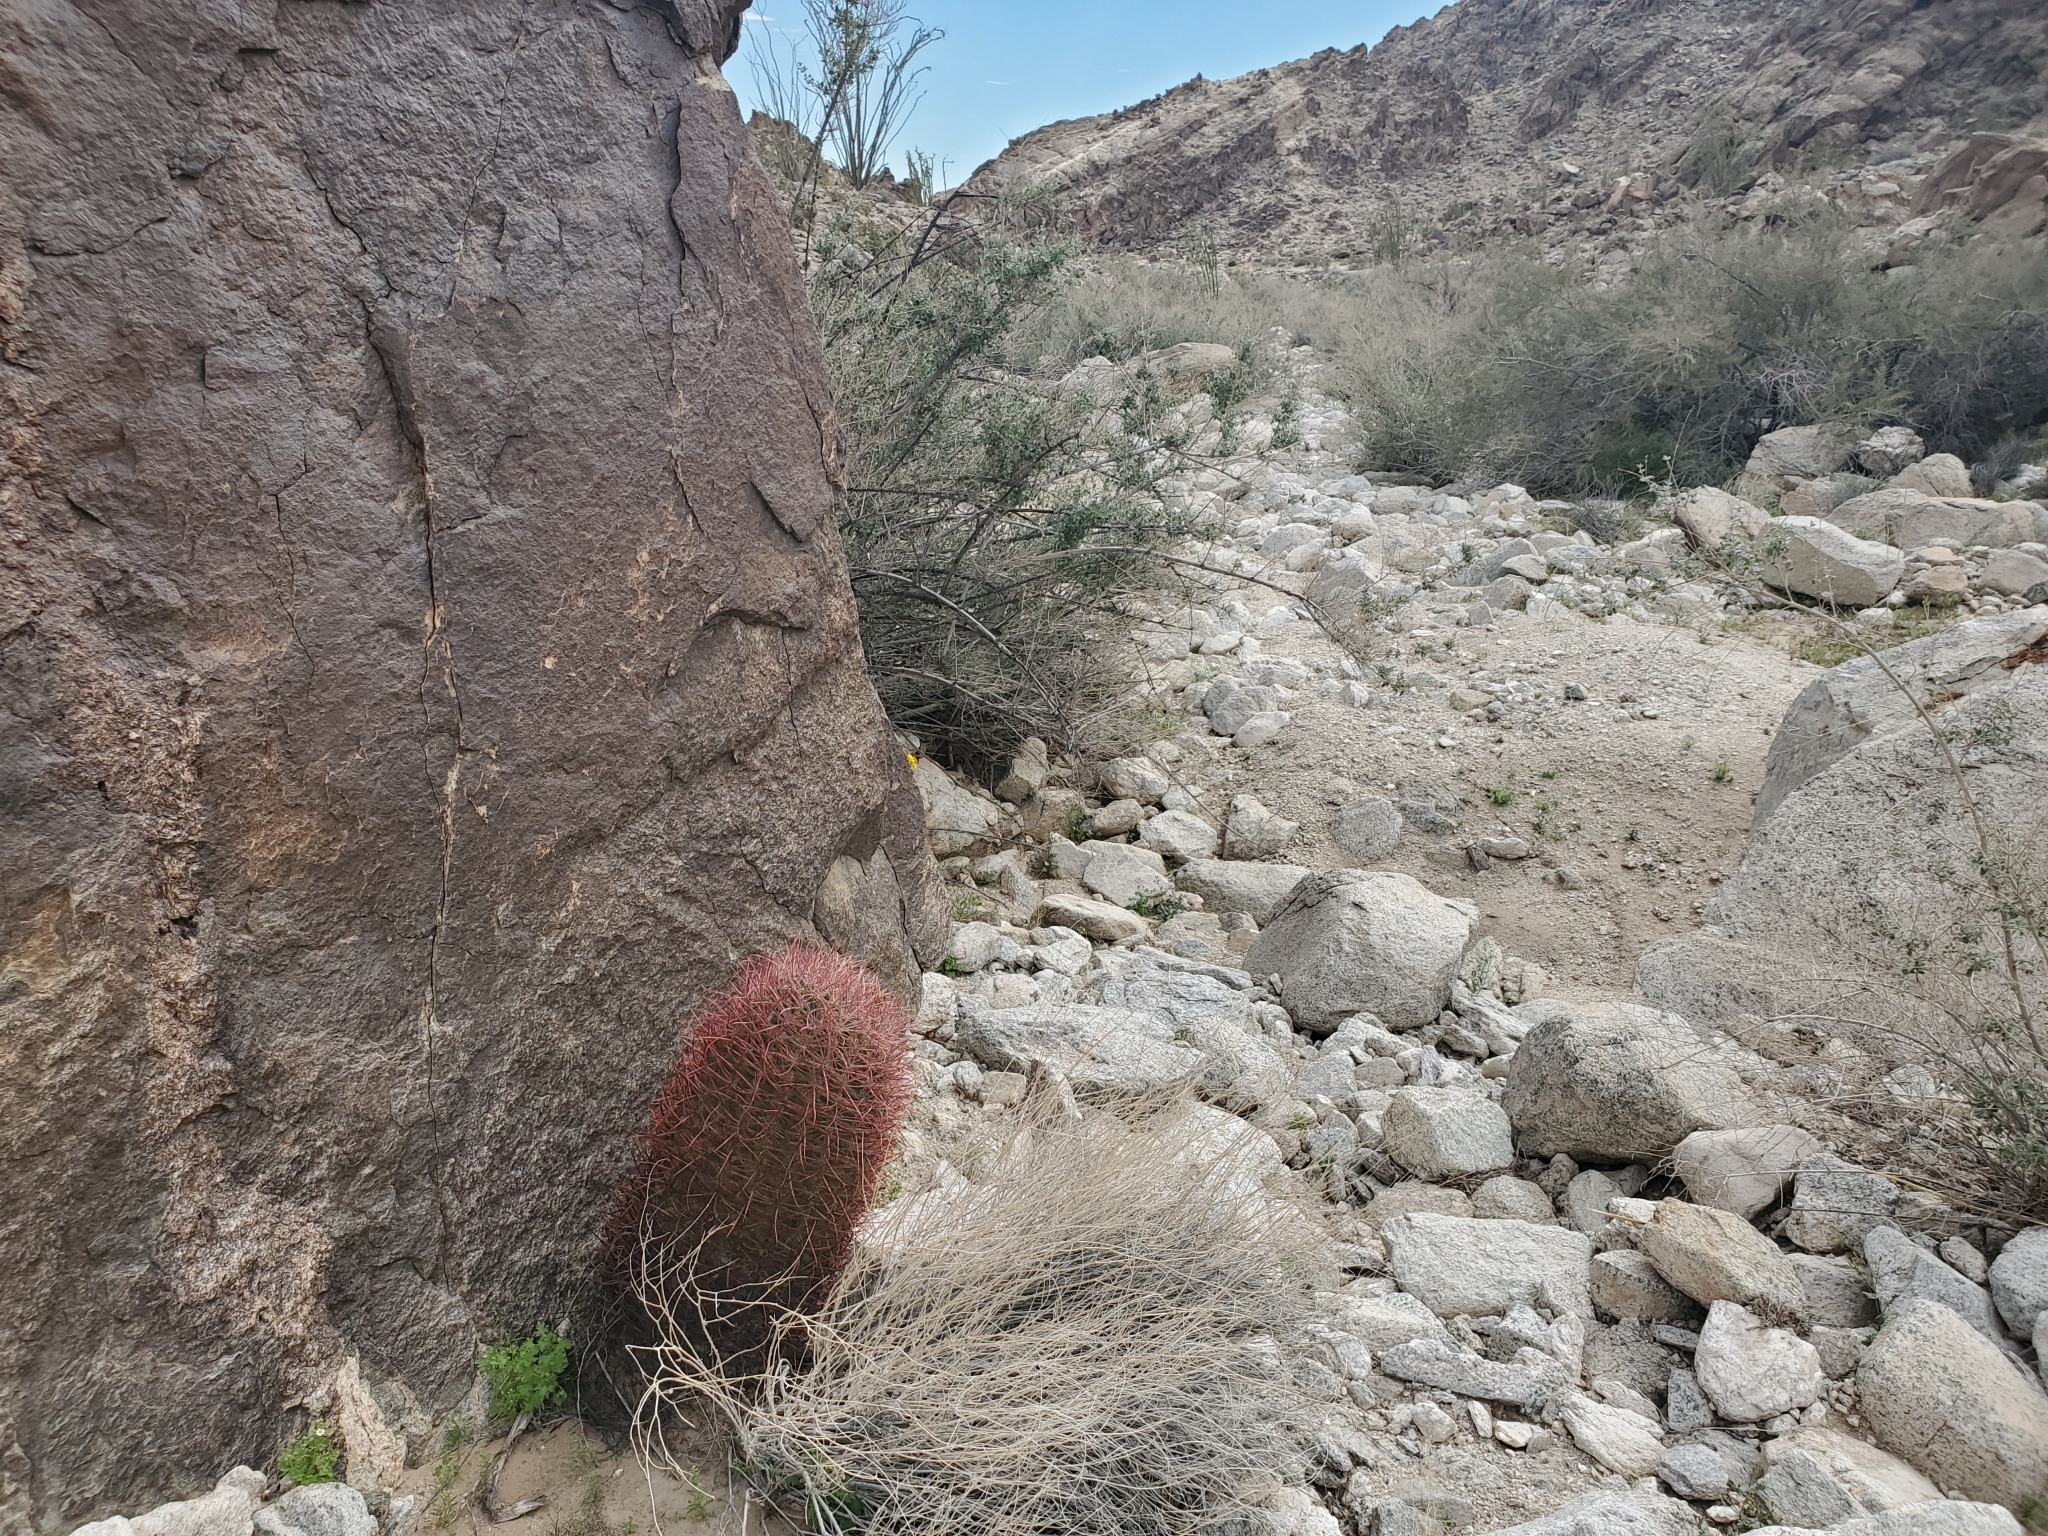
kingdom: Plantae
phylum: Tracheophyta
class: Magnoliopsida
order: Caryophyllales
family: Cactaceae
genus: Ferocactus
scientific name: Ferocactus cylindraceus
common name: California barrel cactus
